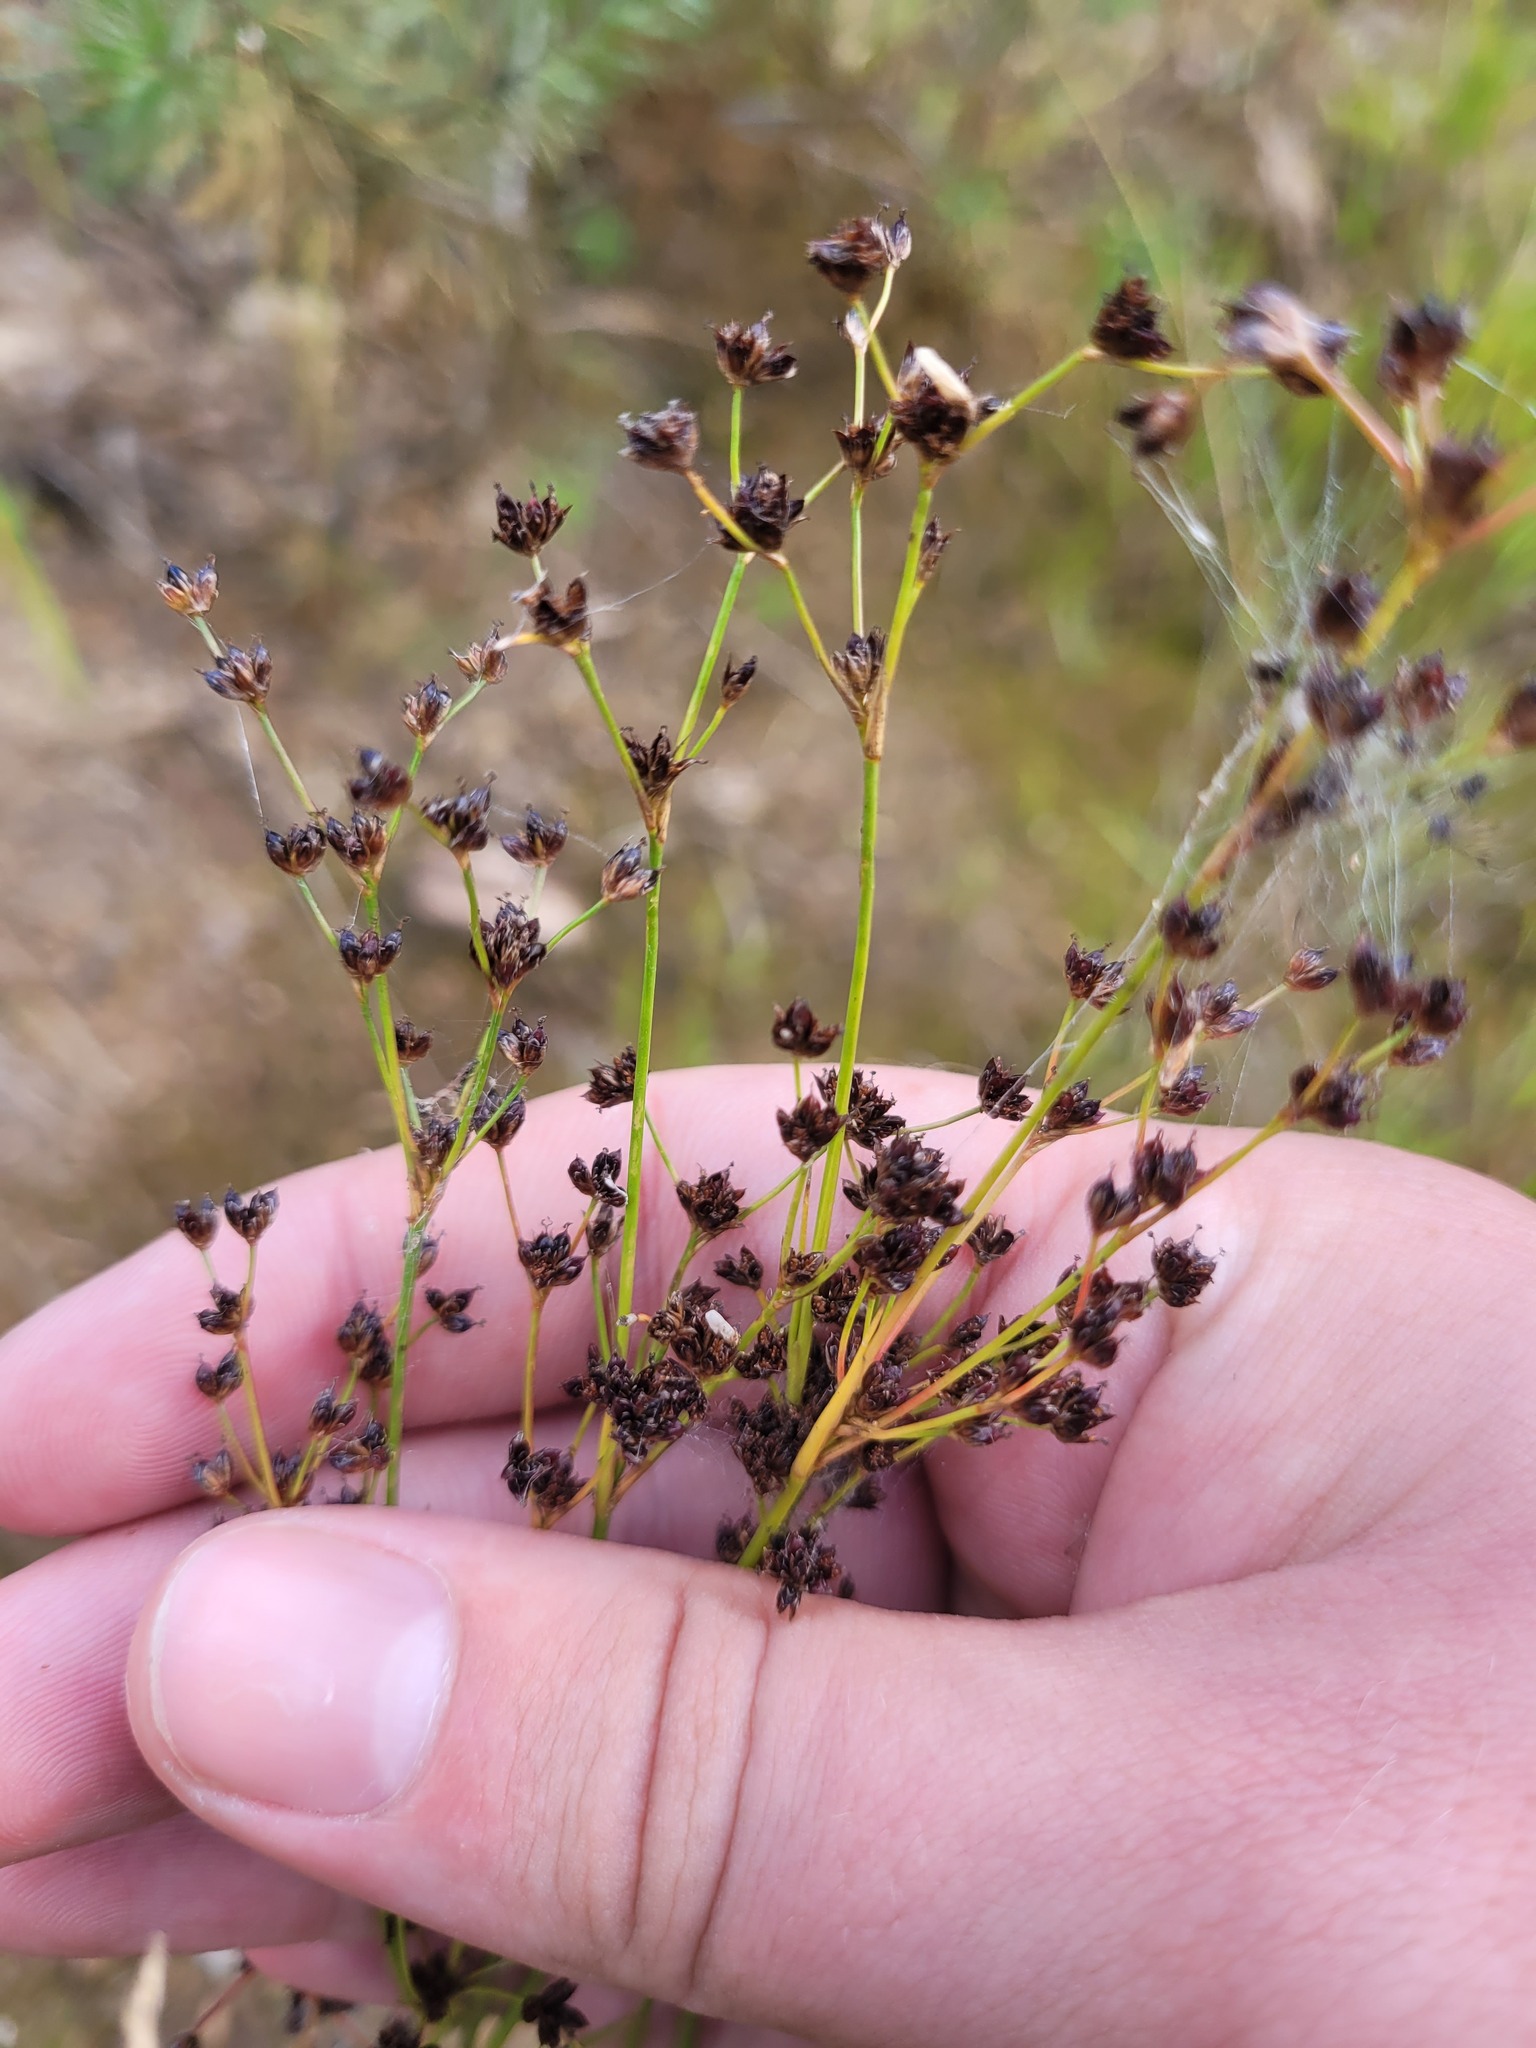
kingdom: Plantae
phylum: Tracheophyta
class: Liliopsida
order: Poales
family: Juncaceae
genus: Juncus
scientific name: Juncus articulatus
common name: Jointed rush
